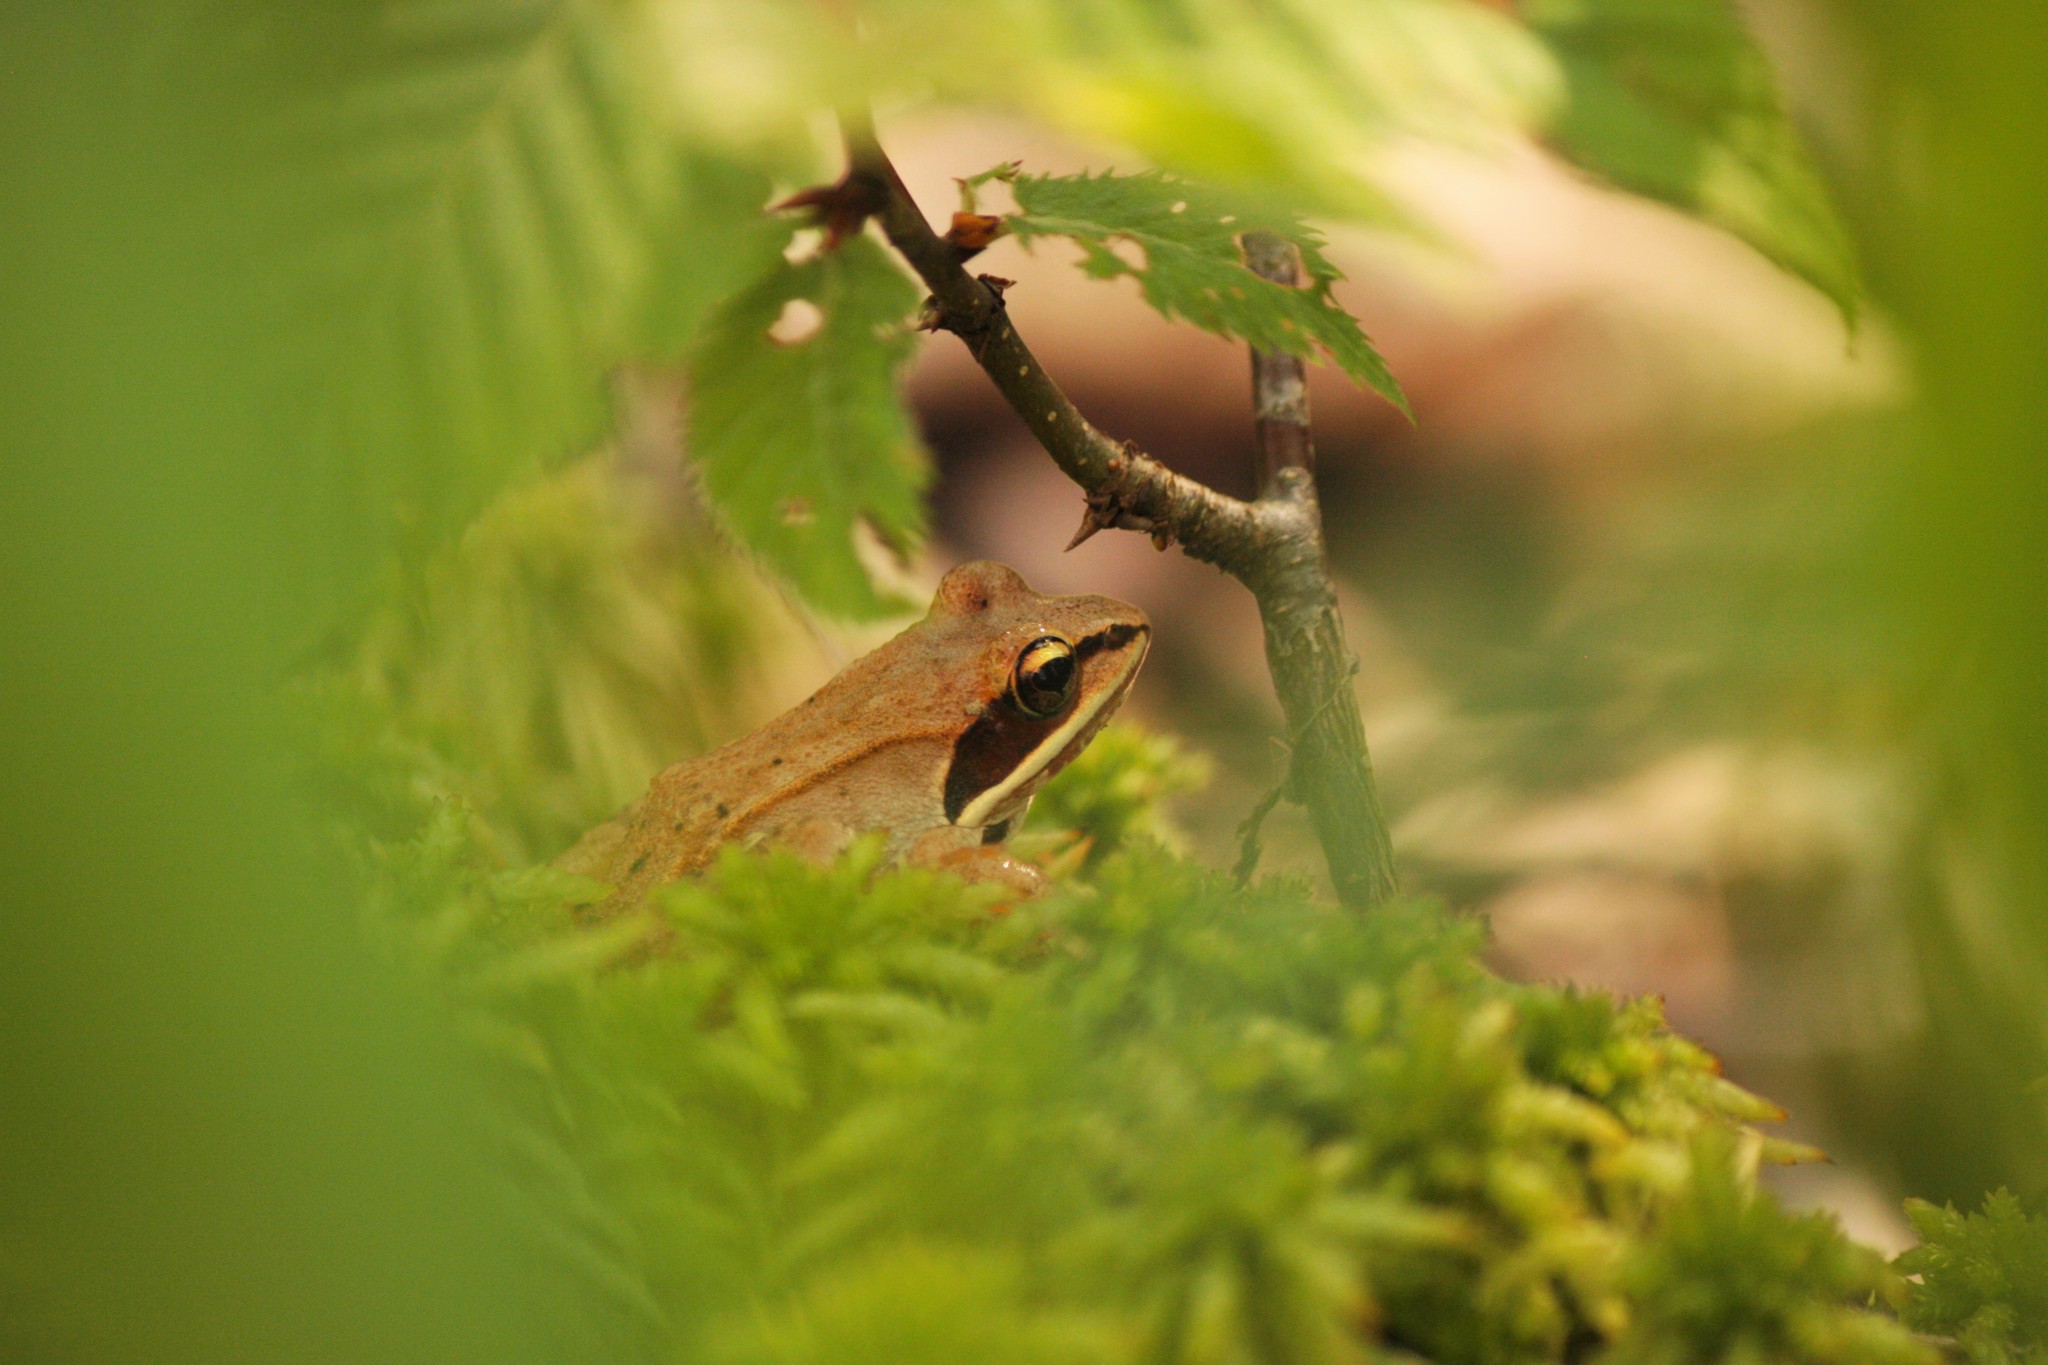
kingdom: Animalia
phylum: Chordata
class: Amphibia
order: Anura
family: Ranidae
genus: Lithobates
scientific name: Lithobates sylvaticus
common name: Wood frog
